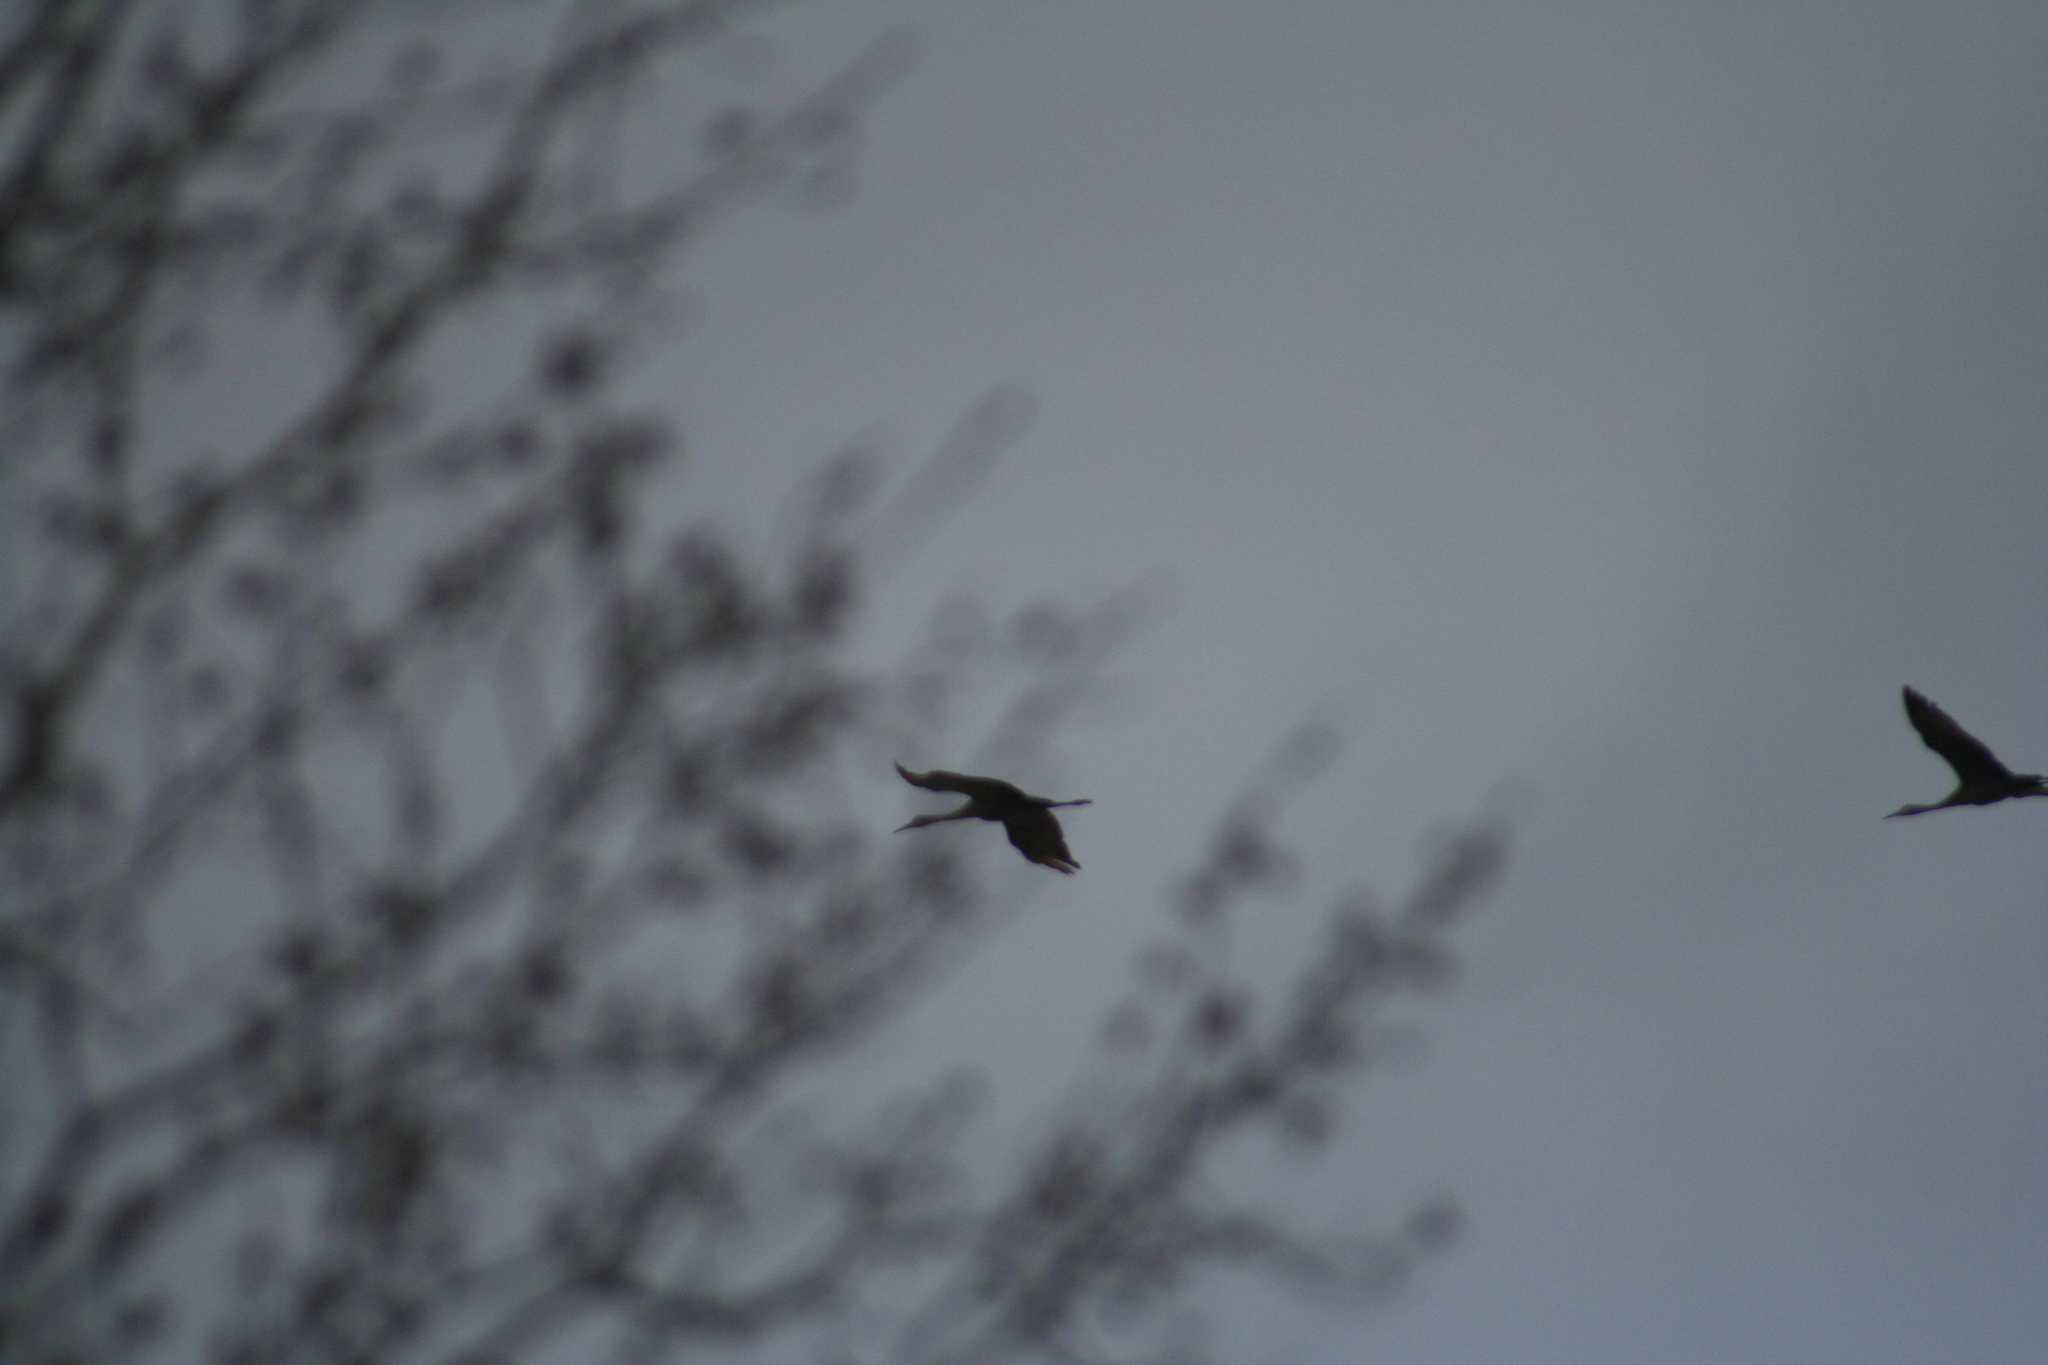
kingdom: Animalia
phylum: Chordata
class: Aves
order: Gruiformes
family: Gruidae
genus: Grus
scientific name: Grus canadensis
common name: Sandhill crane
